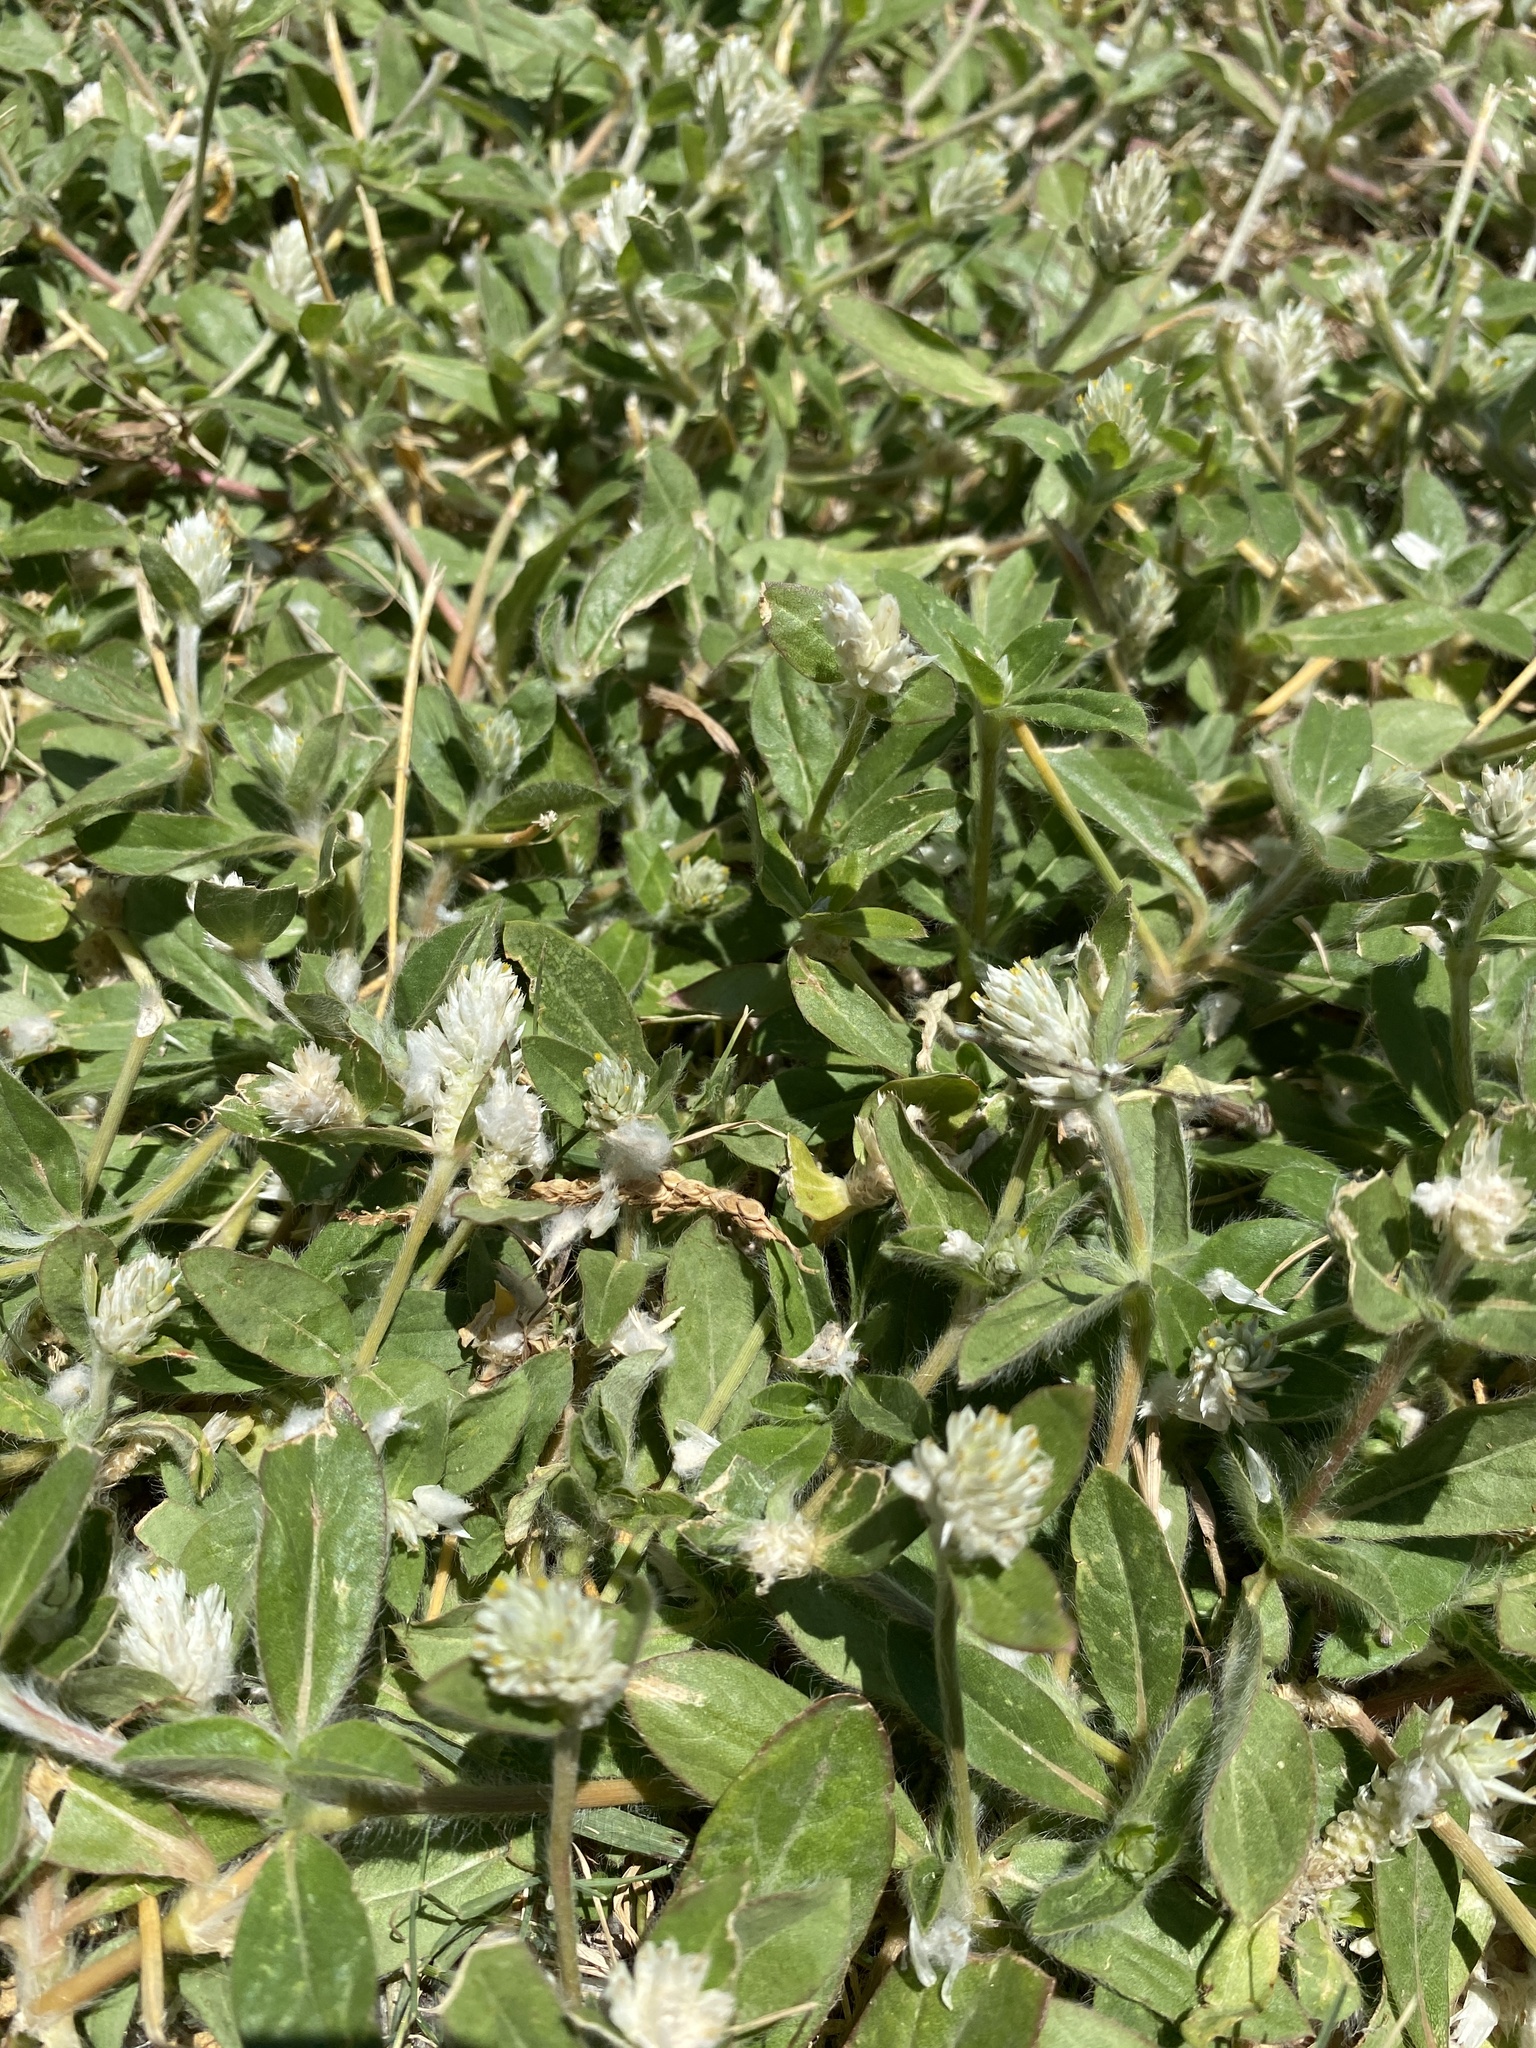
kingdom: Plantae
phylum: Tracheophyta
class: Magnoliopsida
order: Caryophyllales
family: Amaranthaceae
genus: Gomphrena
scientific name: Gomphrena serrata
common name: Arrasa con todo
